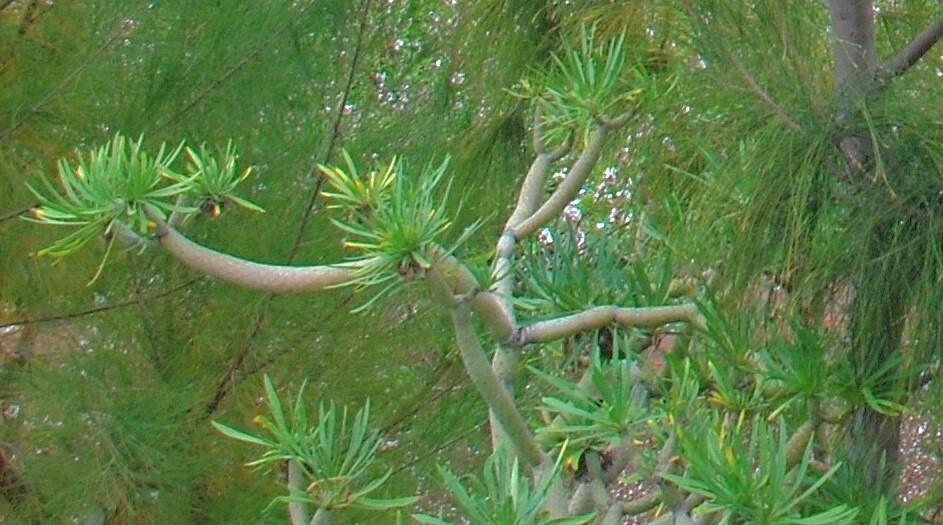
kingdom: Plantae
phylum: Tracheophyta
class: Magnoliopsida
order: Asterales
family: Asteraceae
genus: Kleinia
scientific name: Kleinia neriifolia
